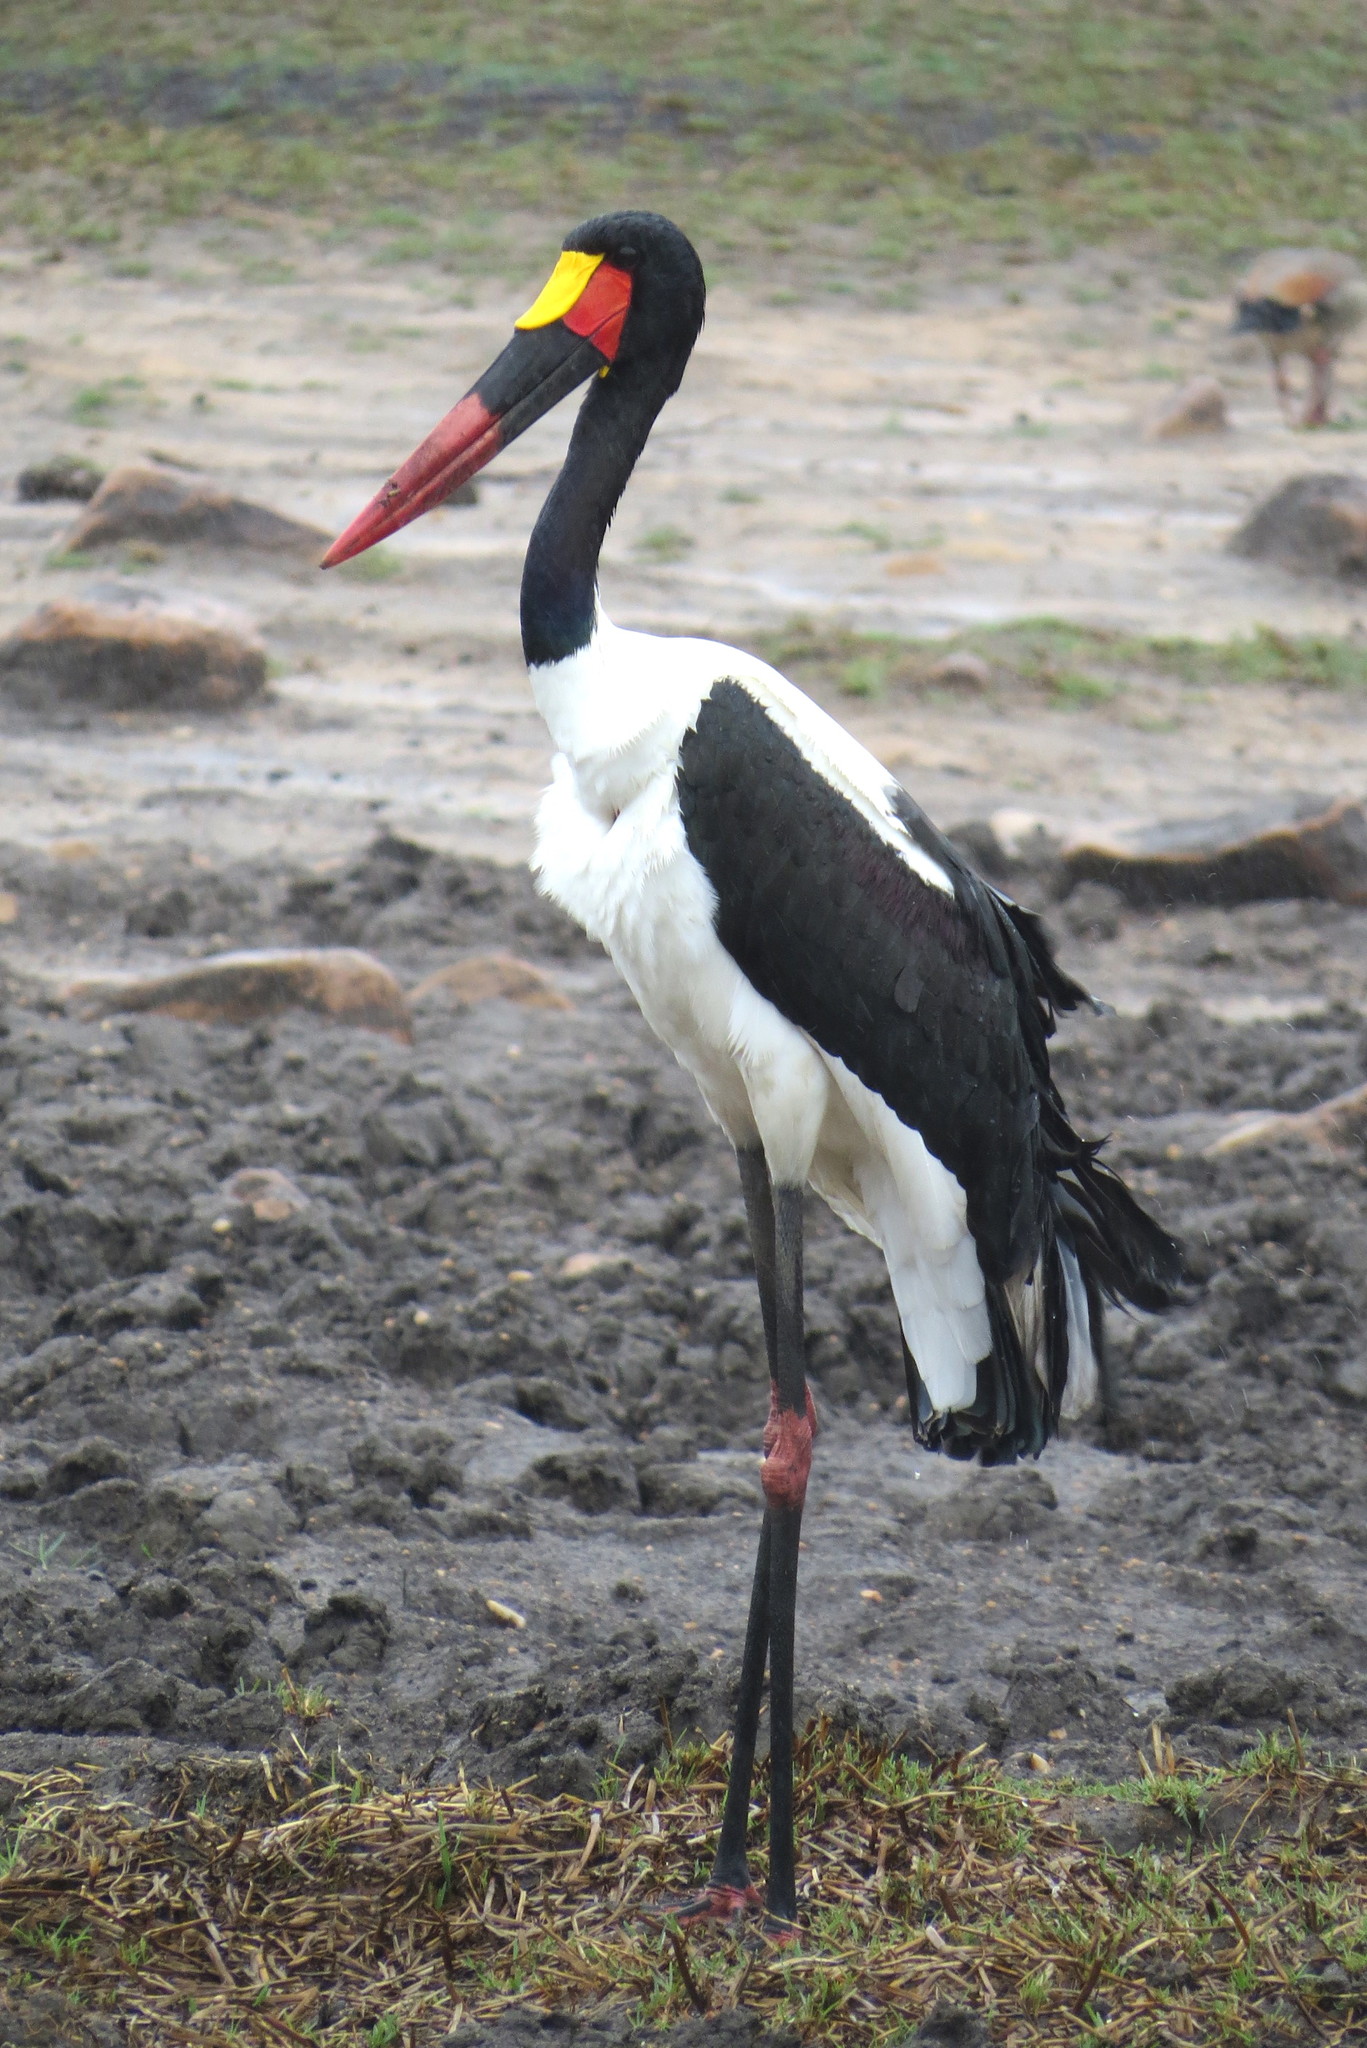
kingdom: Animalia
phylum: Chordata
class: Aves
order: Ciconiiformes
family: Ciconiidae
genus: Ephippiorhynchus
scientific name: Ephippiorhynchus senegalensis
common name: Saddle-billed stork
